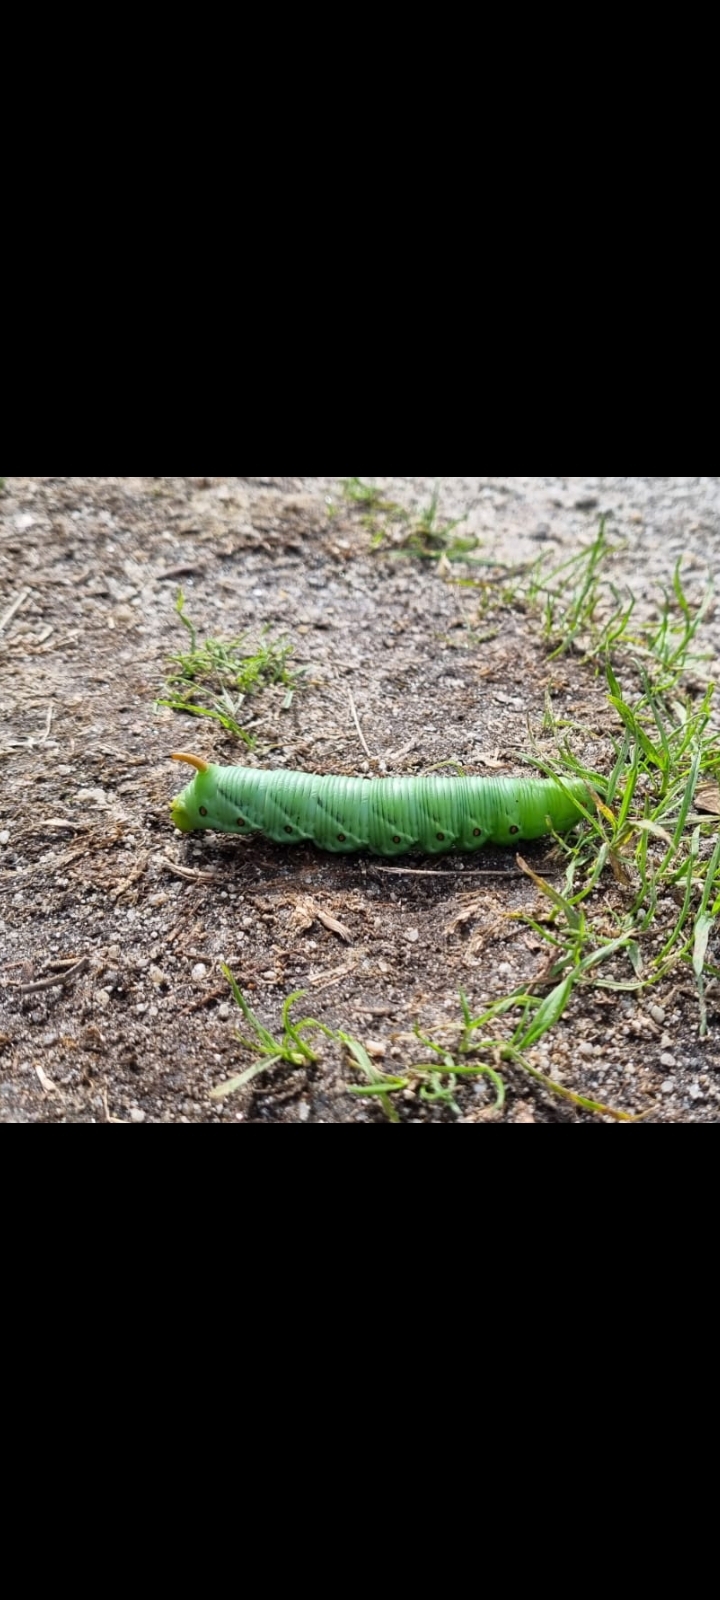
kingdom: Animalia
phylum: Arthropoda
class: Insecta
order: Lepidoptera
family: Sphingidae
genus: Agrius
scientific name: Agrius convolvuli
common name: Convolvulus hawkmoth
